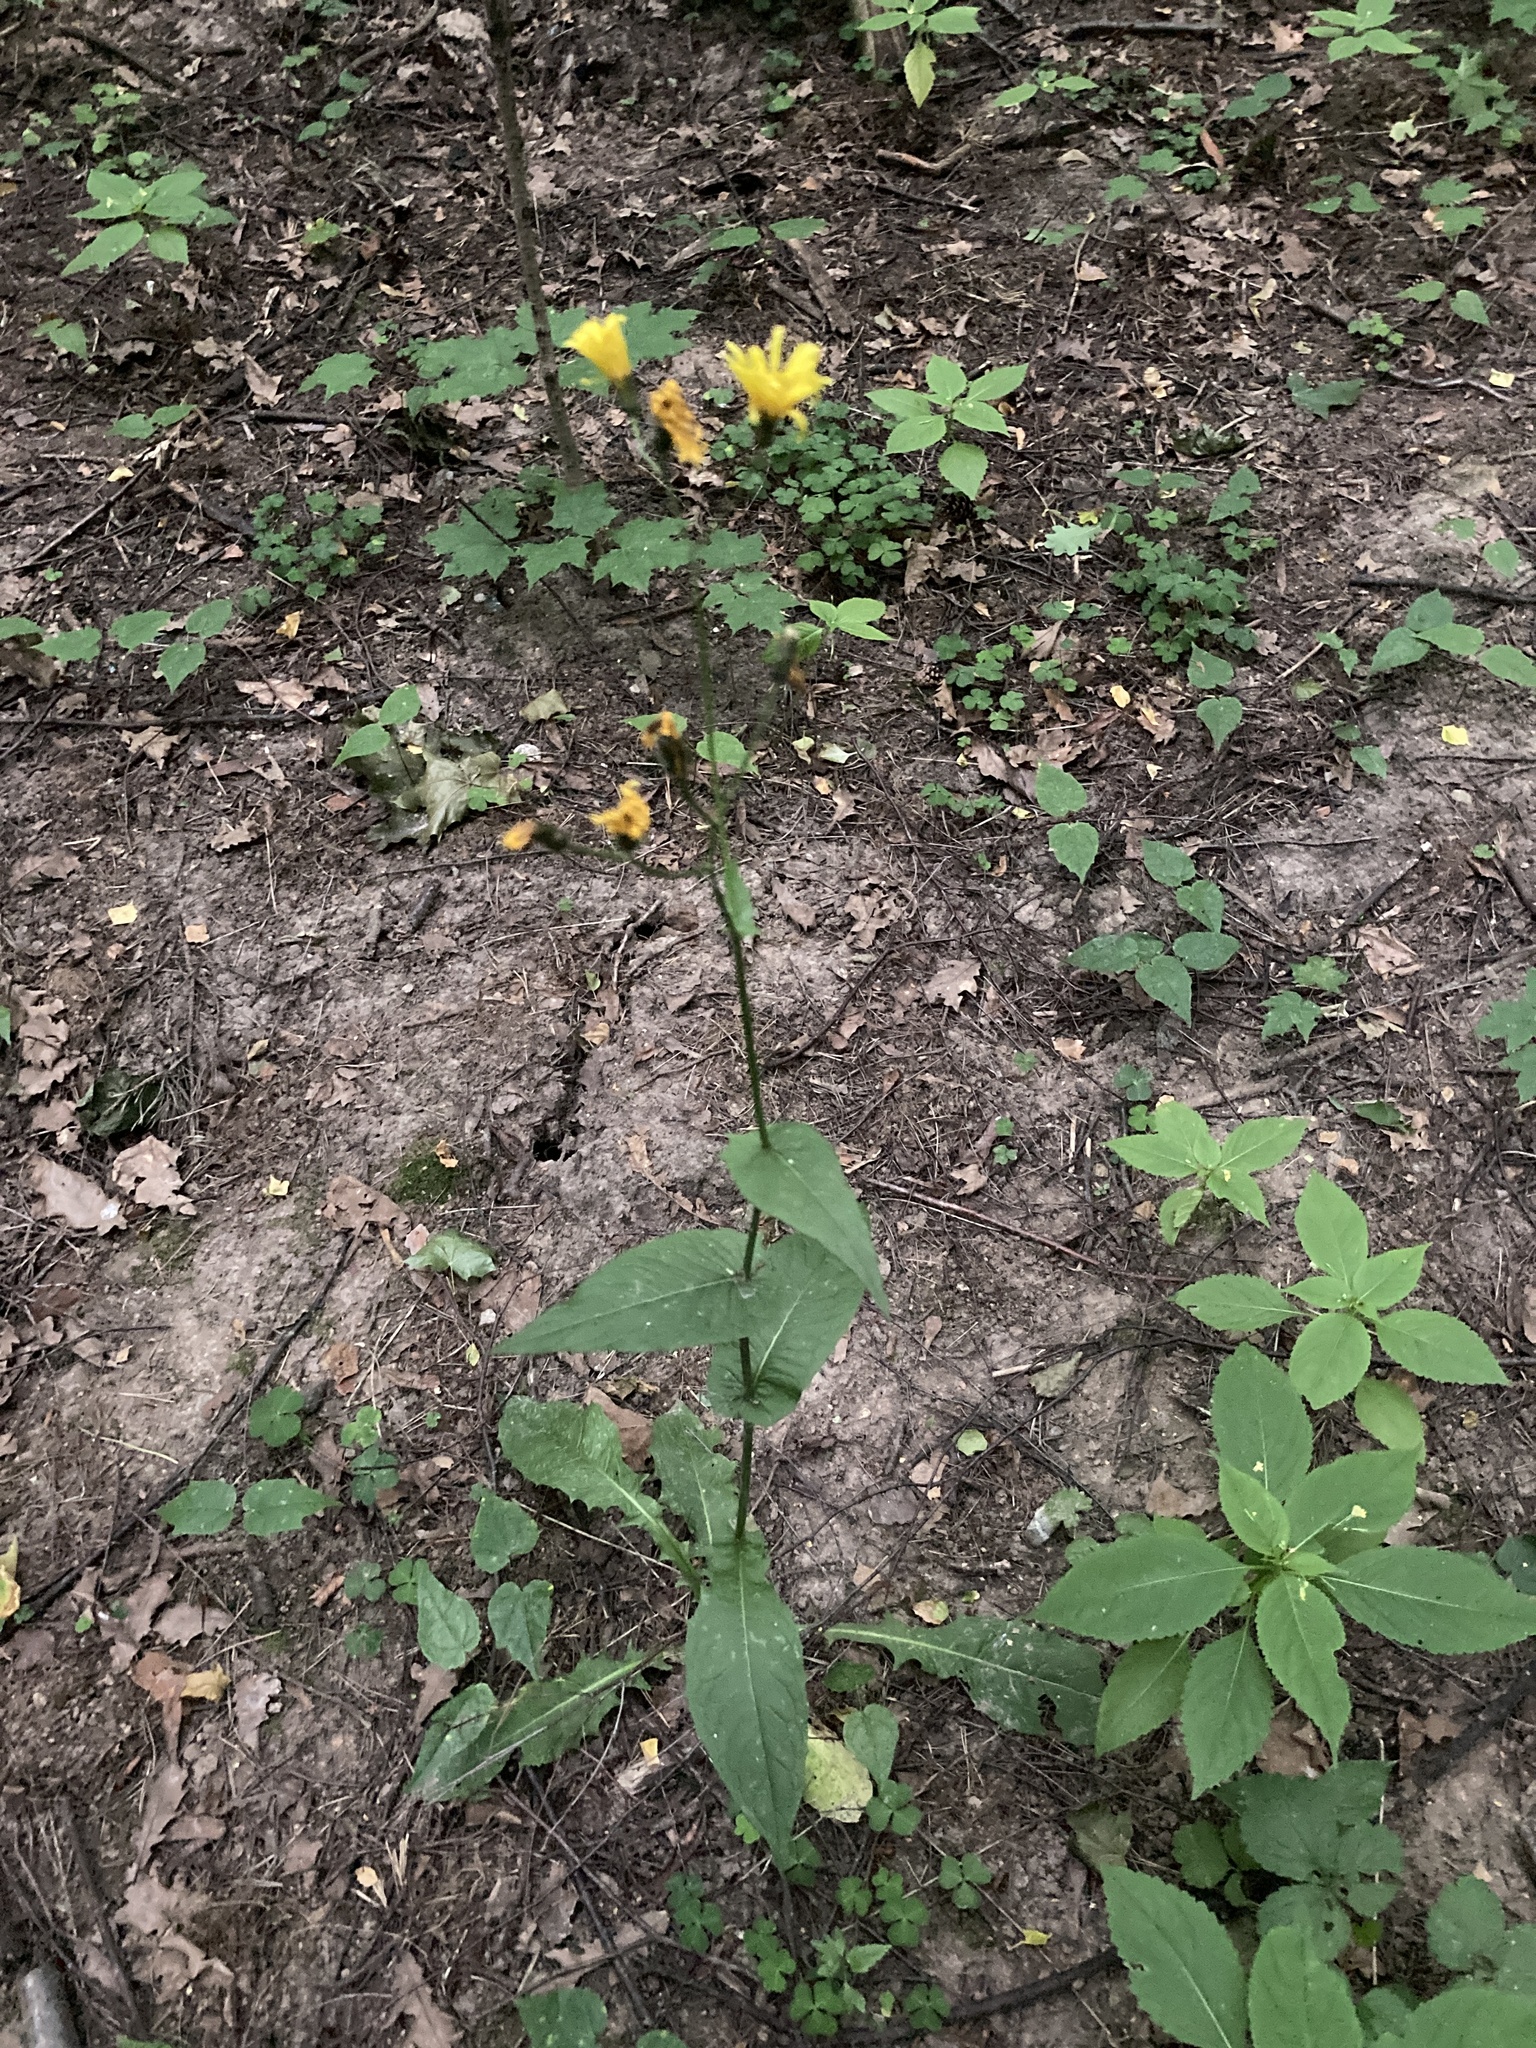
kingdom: Plantae
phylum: Tracheophyta
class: Magnoliopsida
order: Asterales
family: Asteraceae
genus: Crepis
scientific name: Crepis paludosa
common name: Marsh hawk's-beard
